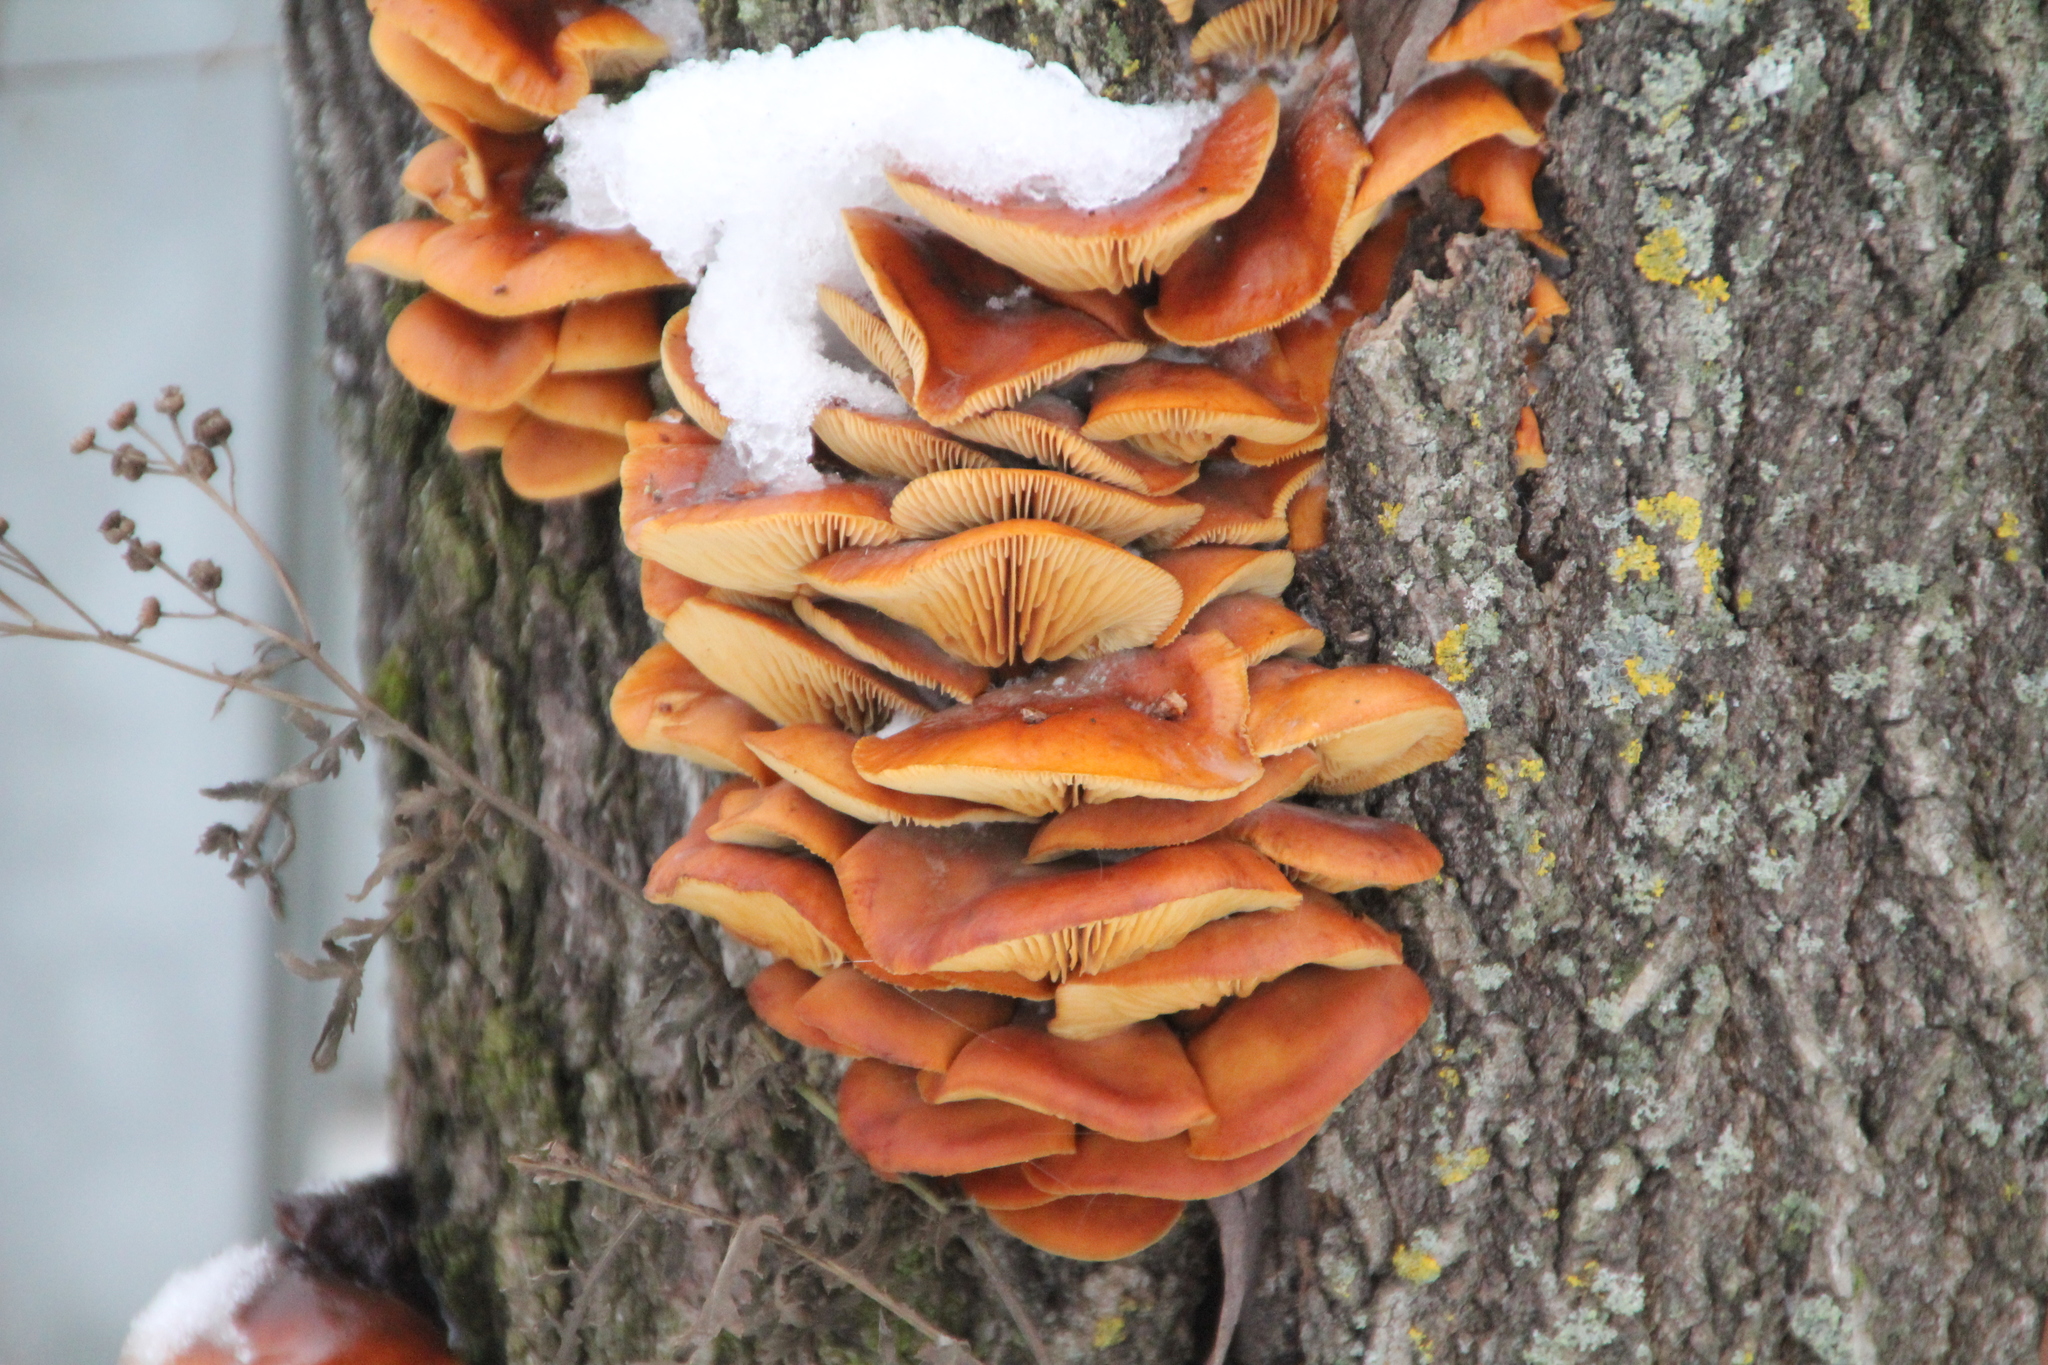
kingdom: Fungi
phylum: Basidiomycota
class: Agaricomycetes
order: Agaricales
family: Physalacriaceae
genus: Flammulina
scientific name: Flammulina
